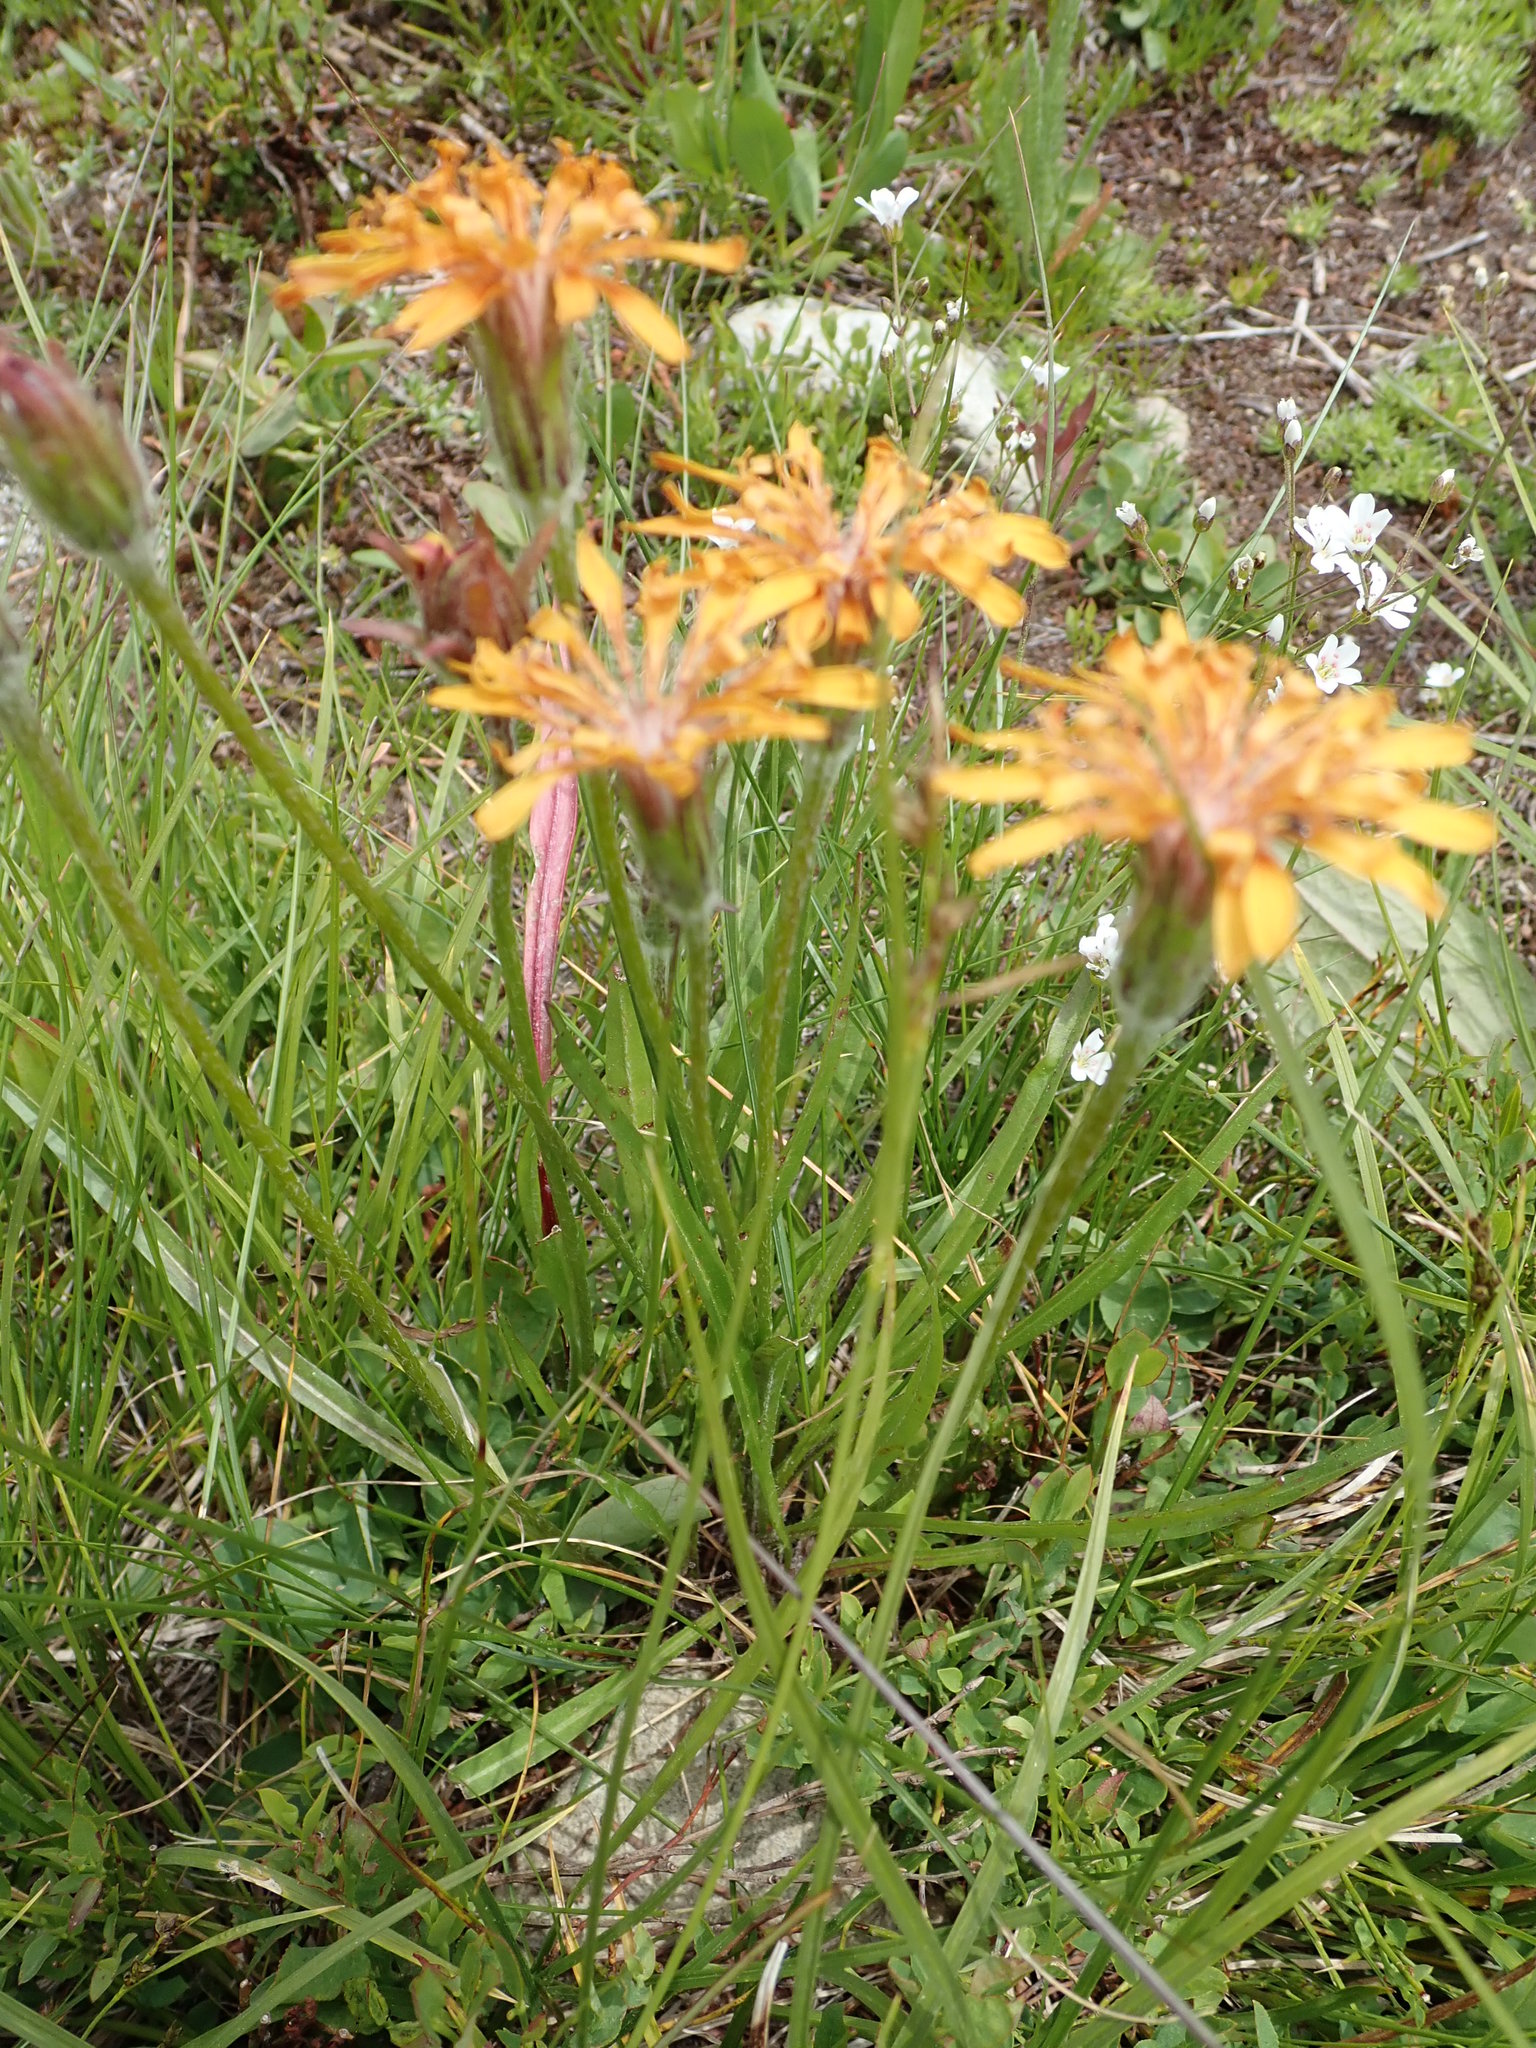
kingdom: Plantae
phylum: Tracheophyta
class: Magnoliopsida
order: Asterales
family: Asteraceae
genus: Agoseris
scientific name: Agoseris aurantiaca
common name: Mountain agoseris
